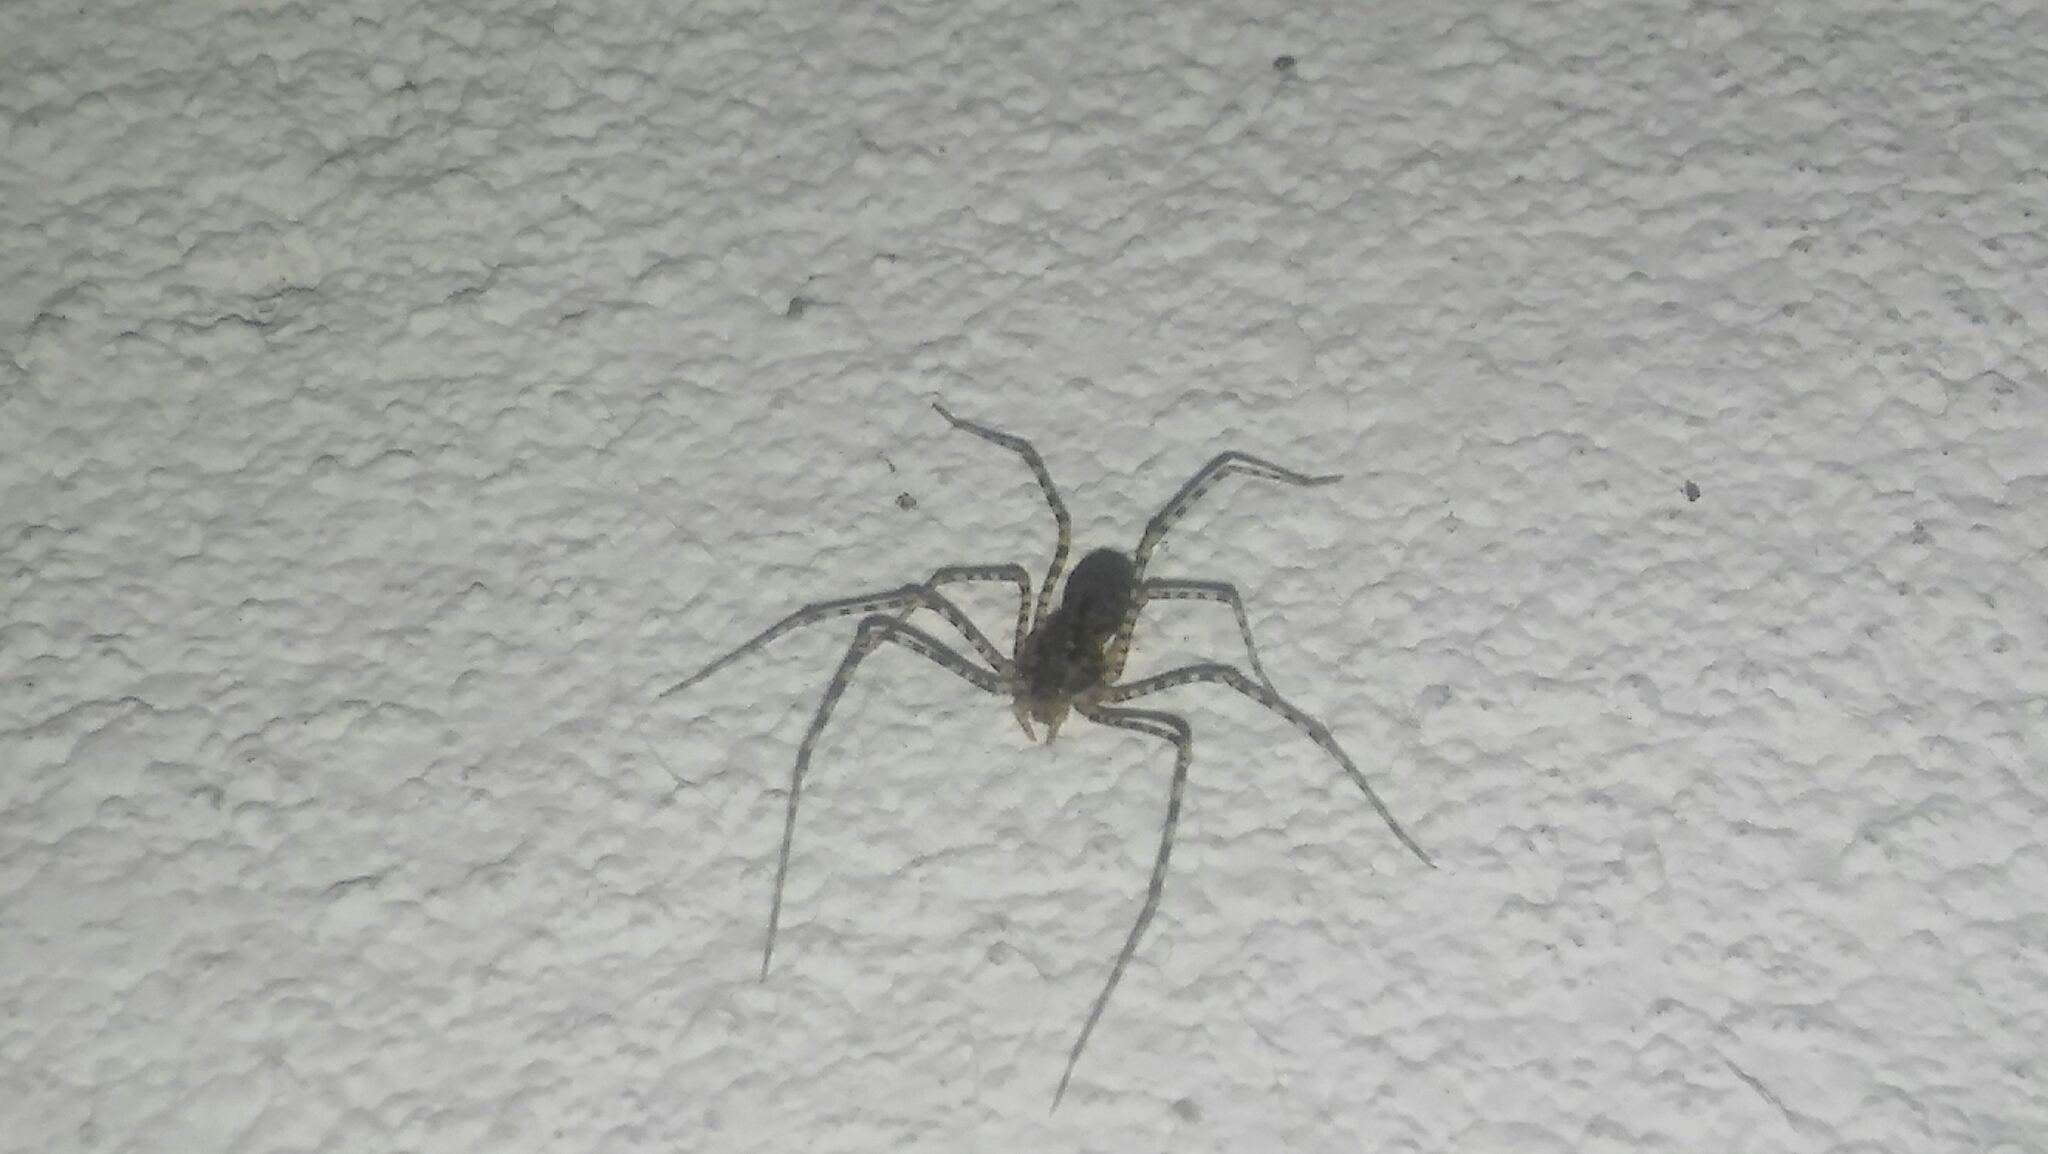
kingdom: Animalia
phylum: Arthropoda
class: Arachnida
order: Araneae
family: Scytodidae
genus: Scytodes
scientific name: Scytodes globula
